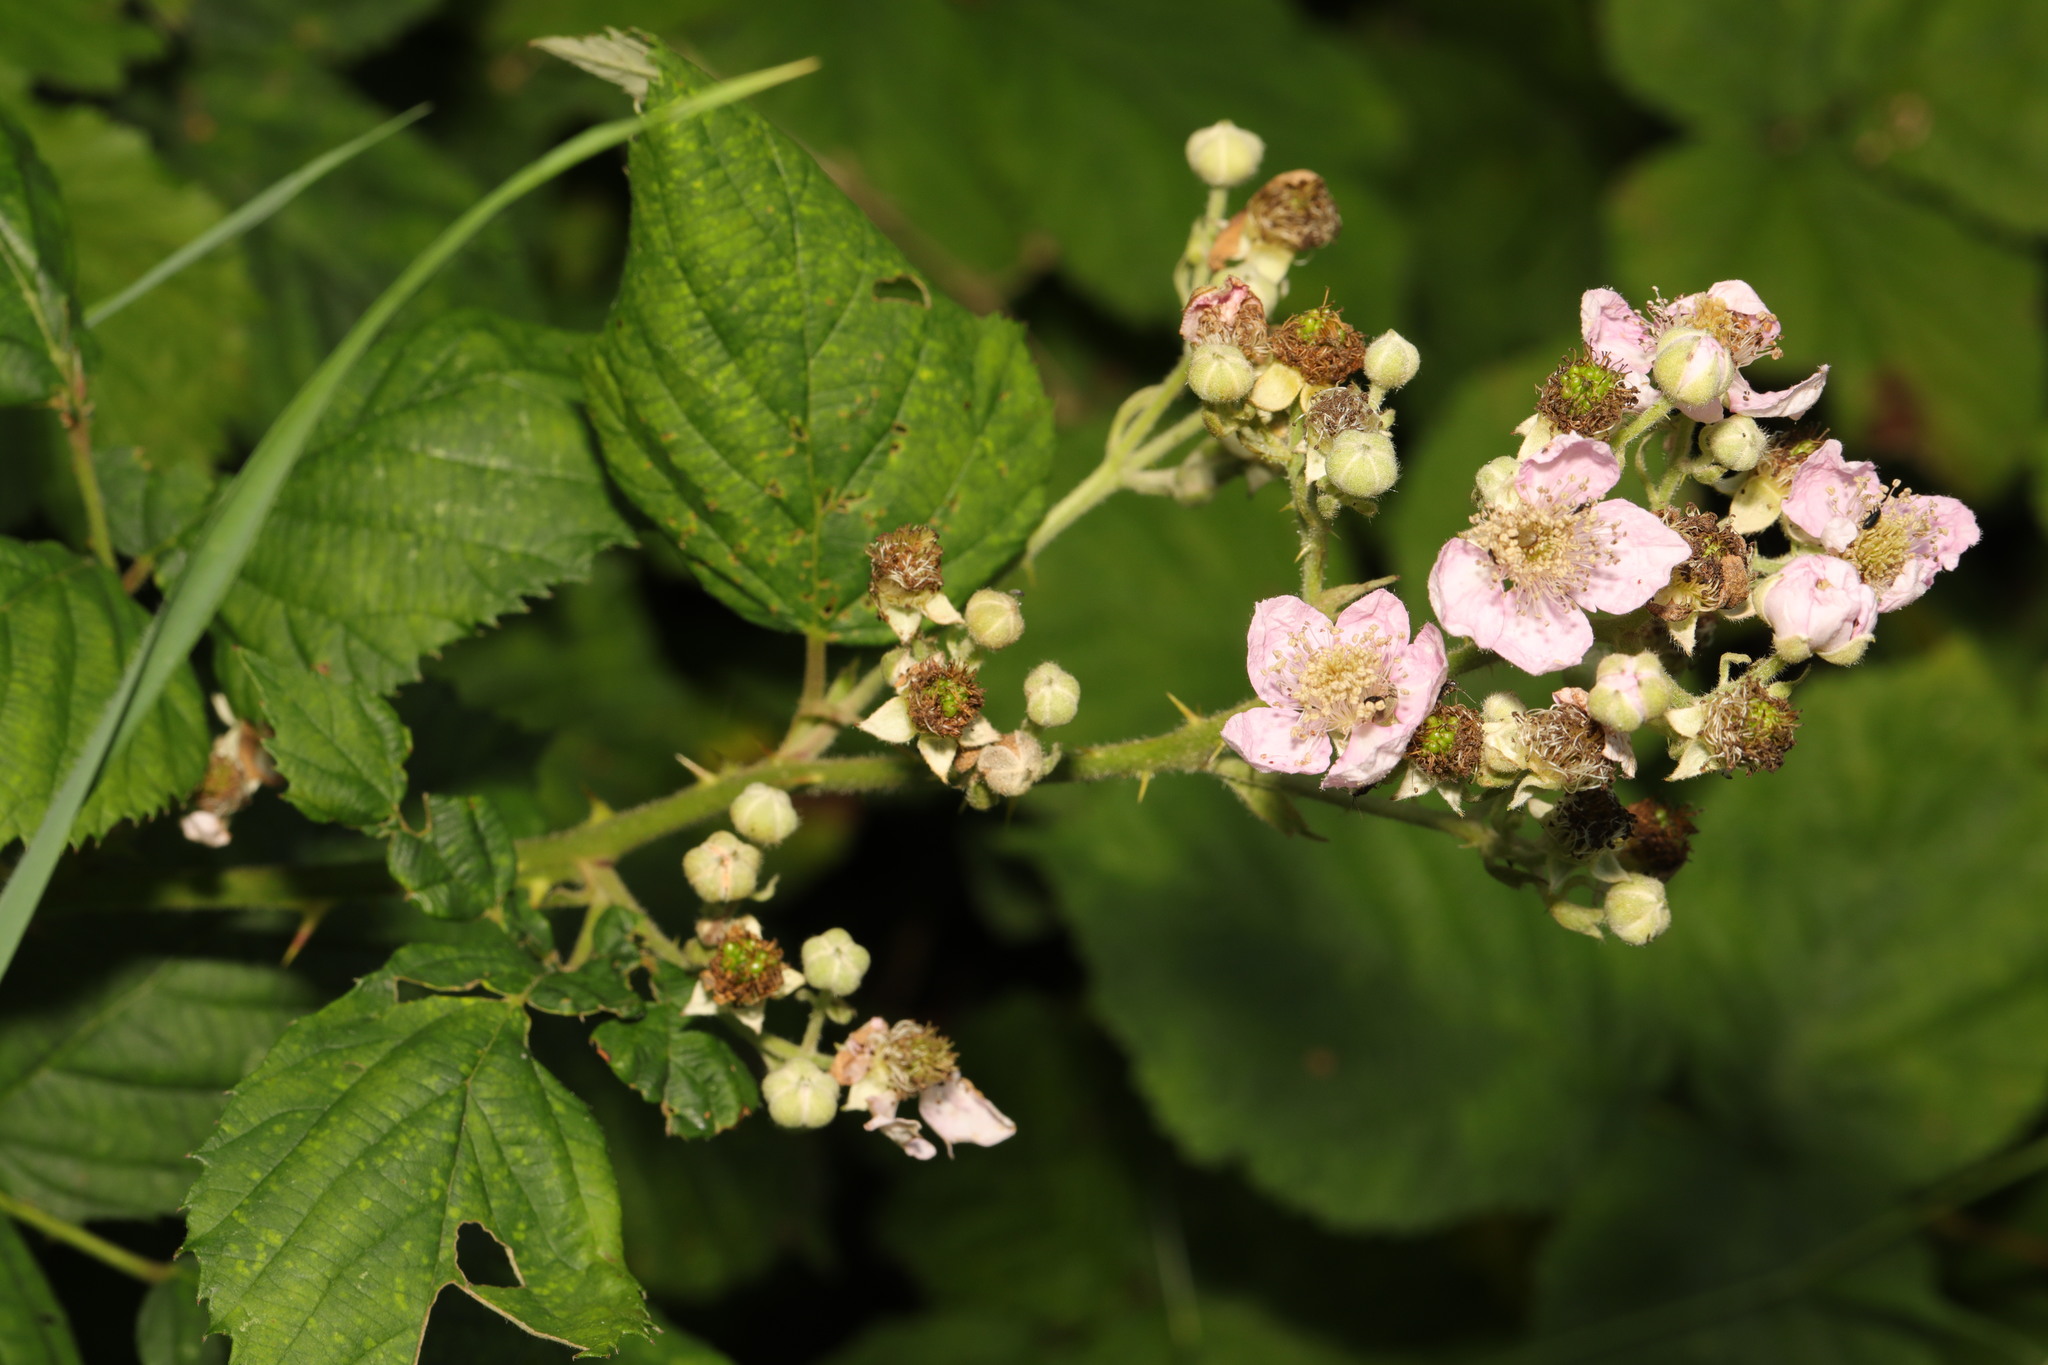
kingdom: Plantae
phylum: Tracheophyta
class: Magnoliopsida
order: Rosales
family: Rosaceae
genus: Rubus
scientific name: Rubus armeniacus
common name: Himalayan blackberry
